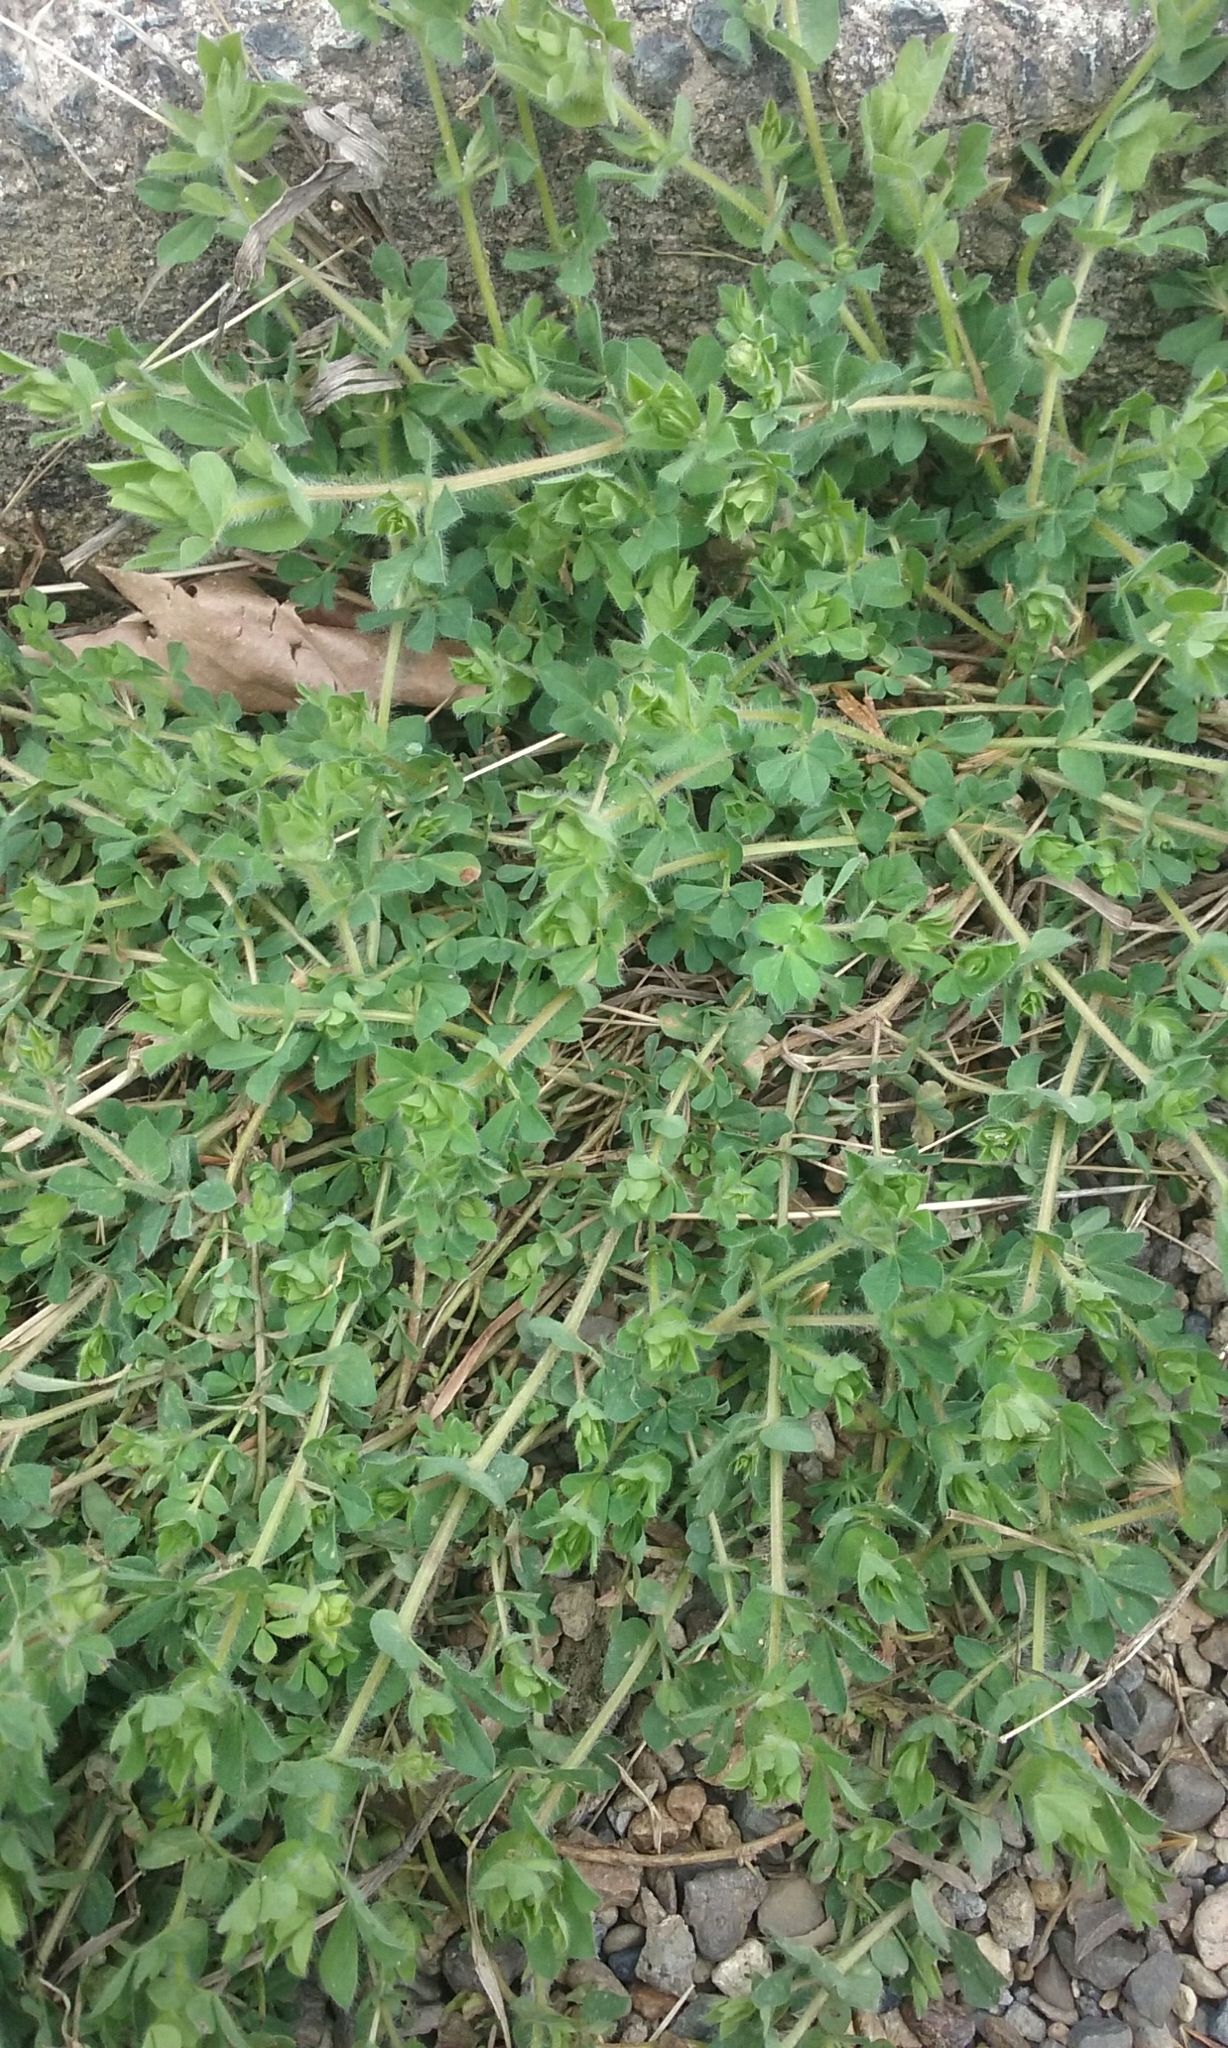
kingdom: Plantae
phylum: Tracheophyta
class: Magnoliopsida
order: Fabales
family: Fabaceae
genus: Lotus
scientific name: Lotus pedunculatus
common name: Greater birdsfoot-trefoil
